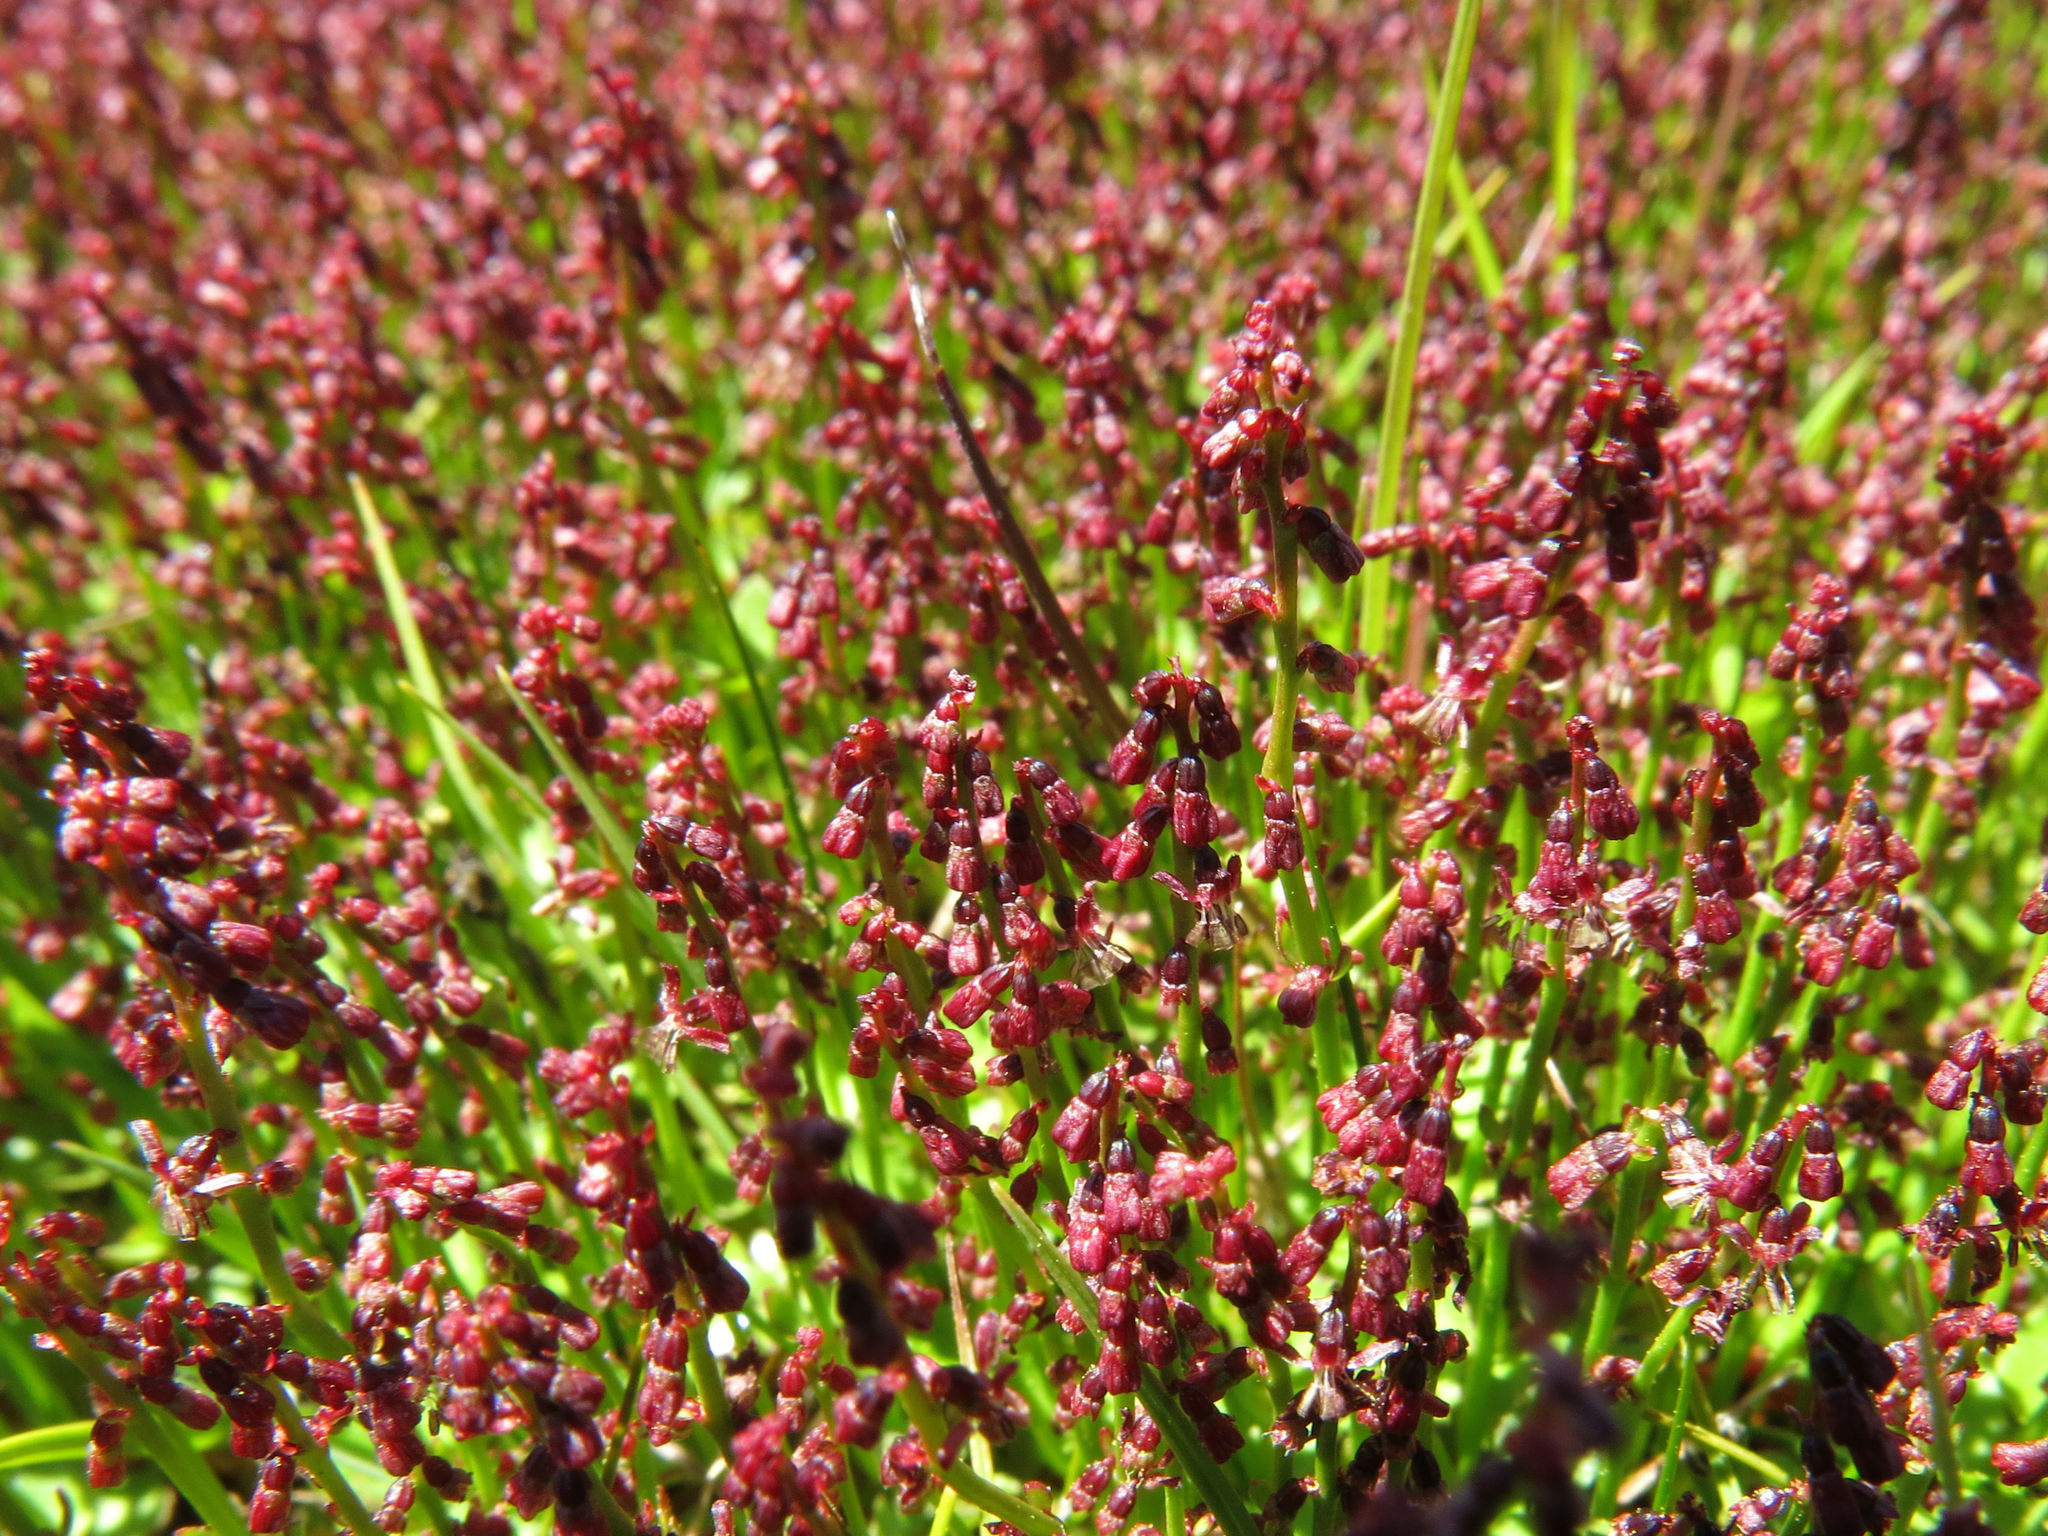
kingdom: Plantae
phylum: Tracheophyta
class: Magnoliopsida
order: Saxifragales
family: Haloragaceae
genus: Gonocarpus
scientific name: Gonocarpus micranthus
